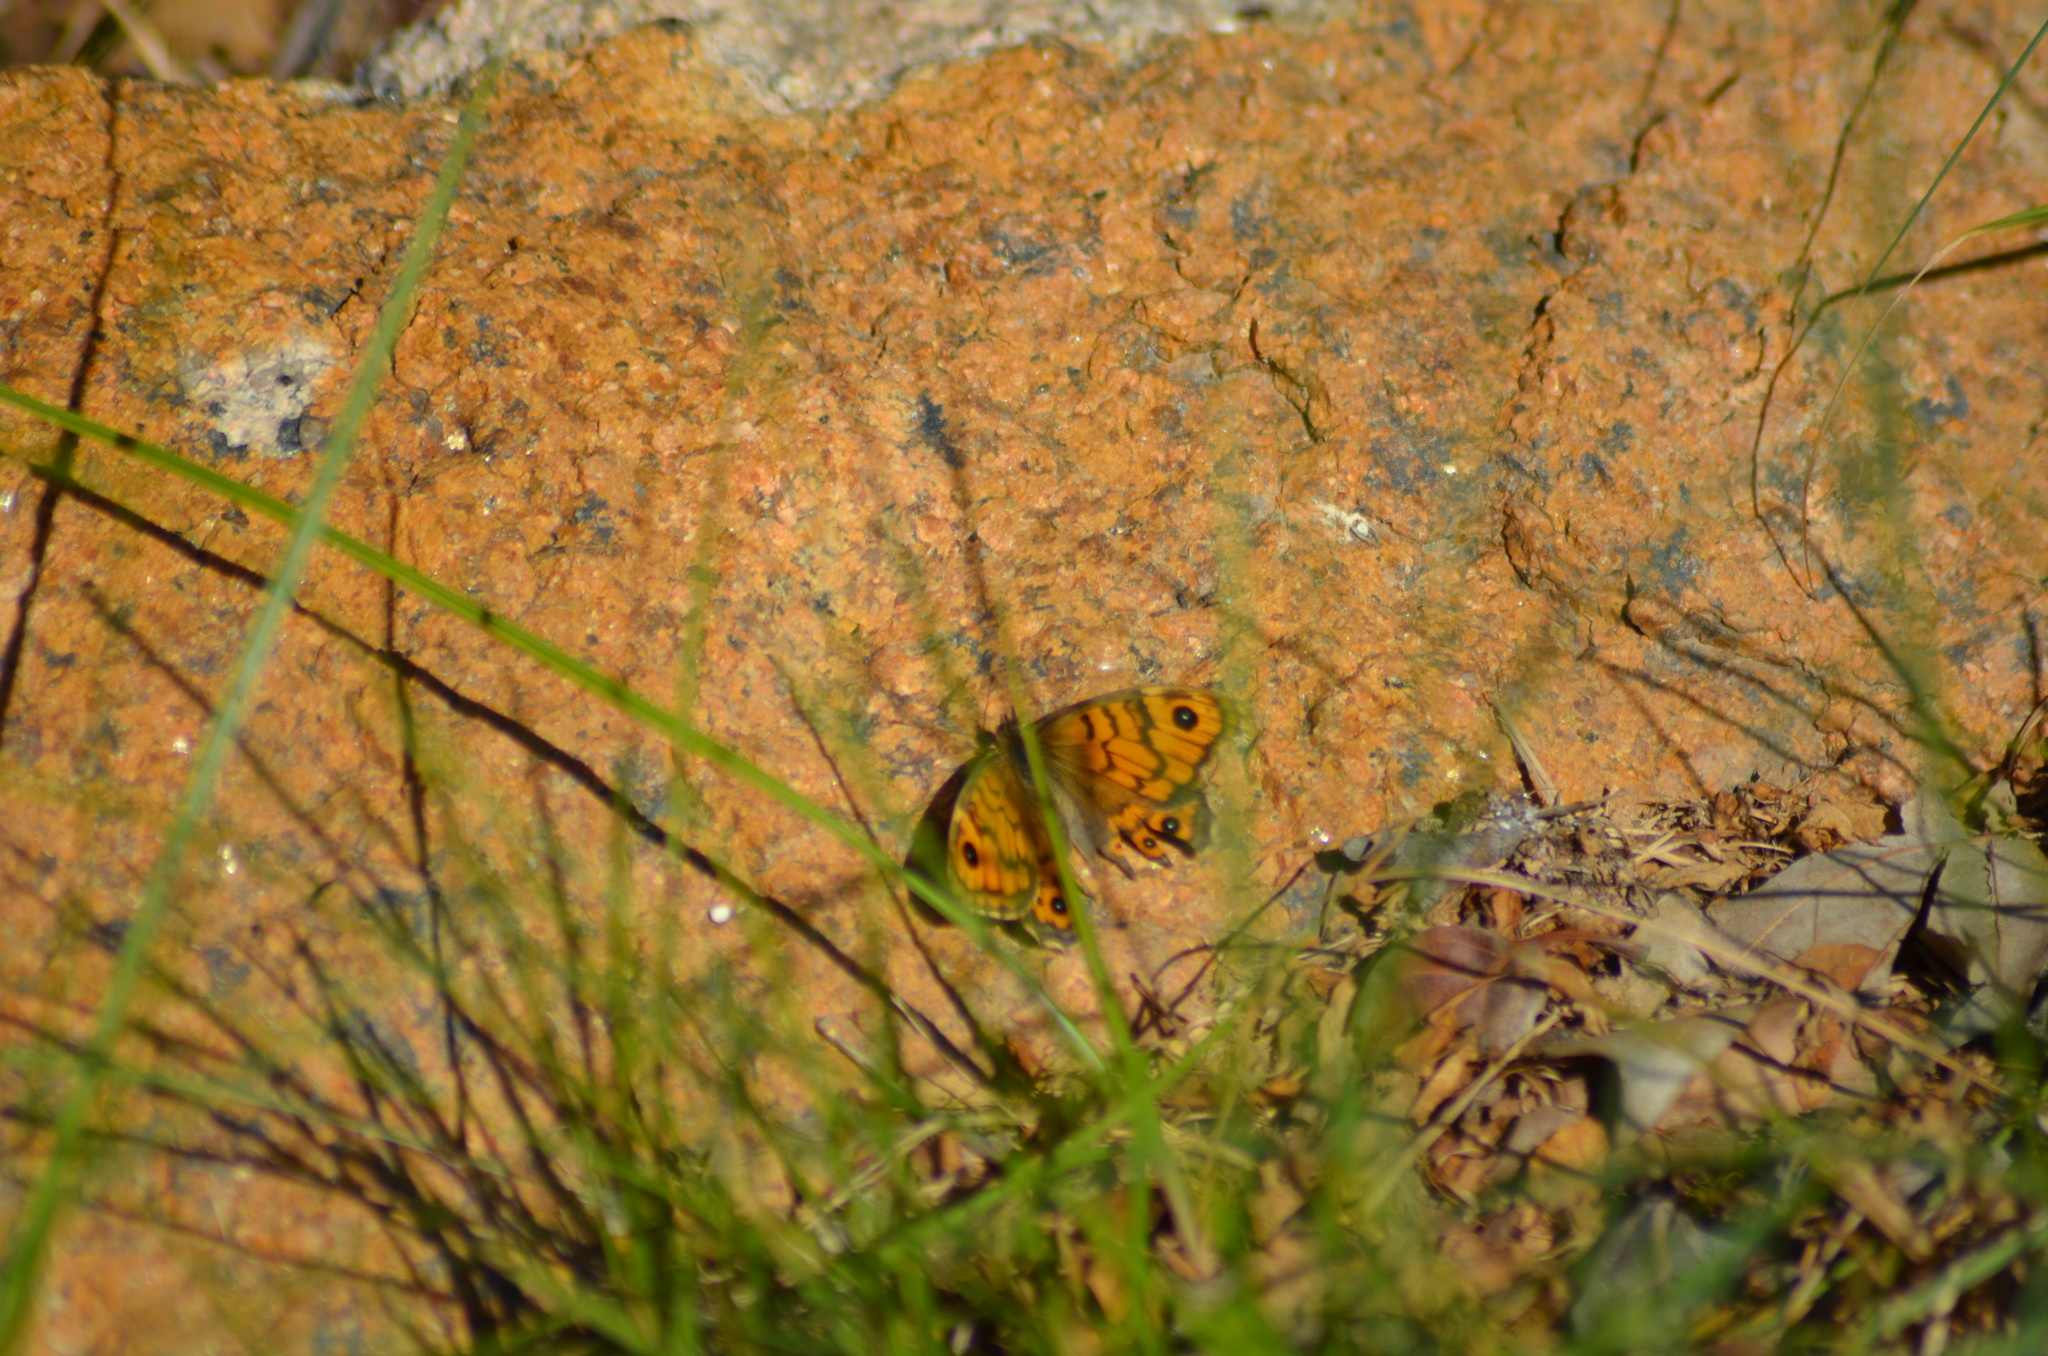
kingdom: Animalia
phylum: Arthropoda
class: Insecta
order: Lepidoptera
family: Nymphalidae
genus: Pararge
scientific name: Pararge Lasiommata megera
